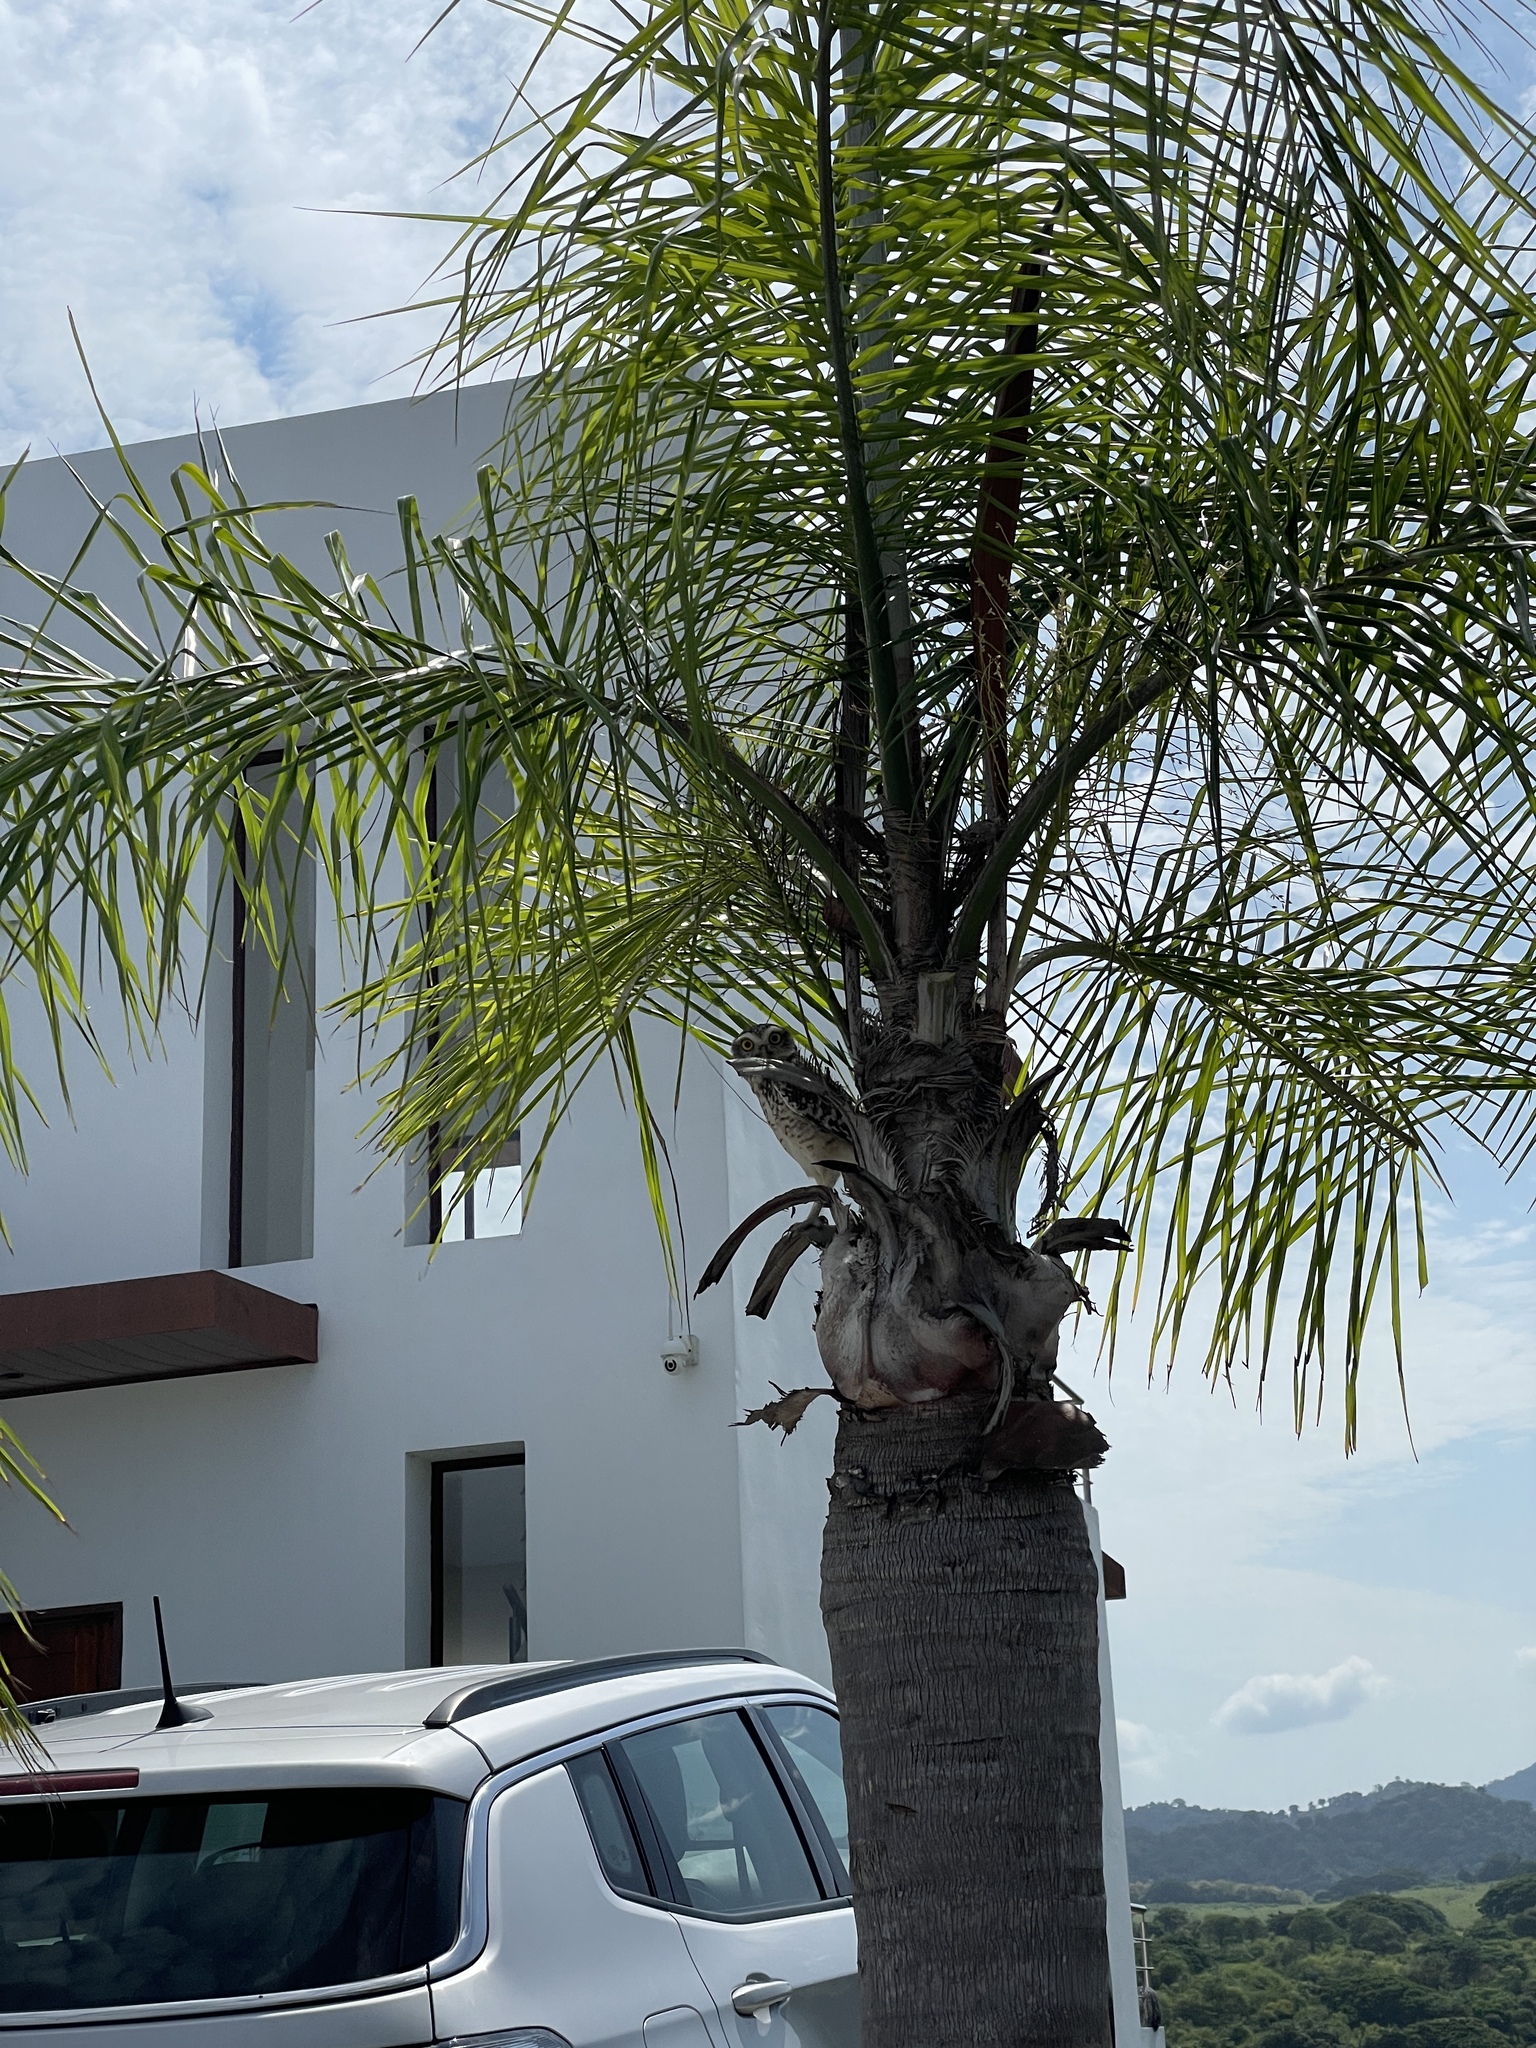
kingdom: Animalia
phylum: Chordata
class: Aves
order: Strigiformes
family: Strigidae
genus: Athene
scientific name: Athene cunicularia
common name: Burrowing owl
